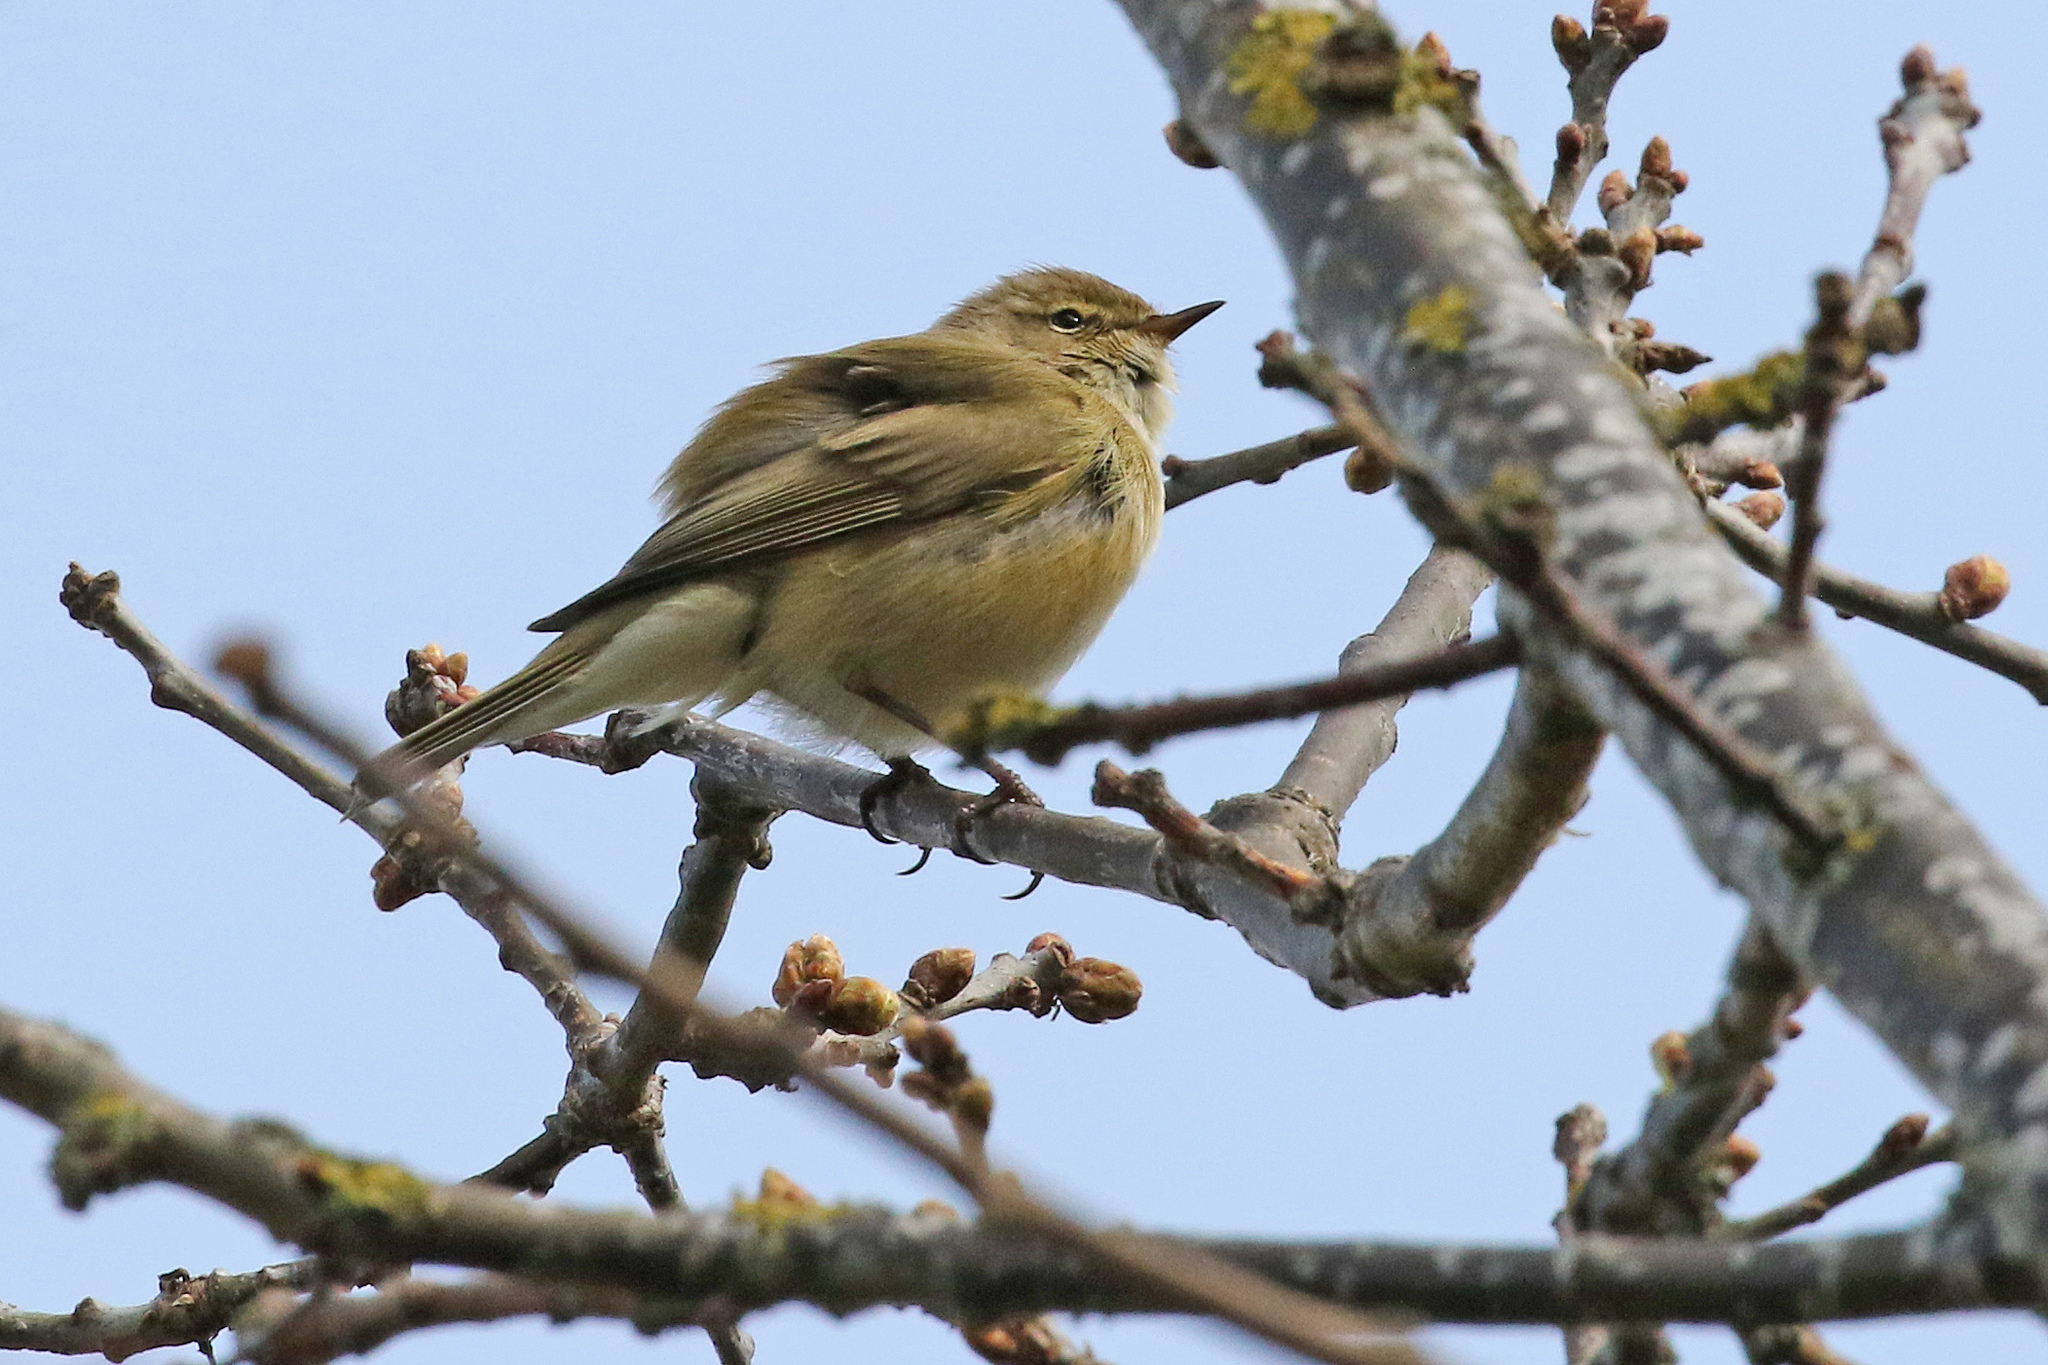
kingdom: Animalia
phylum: Chordata
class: Aves
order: Passeriformes
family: Phylloscopidae
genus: Phylloscopus
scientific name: Phylloscopus collybita
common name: Common chiffchaff
